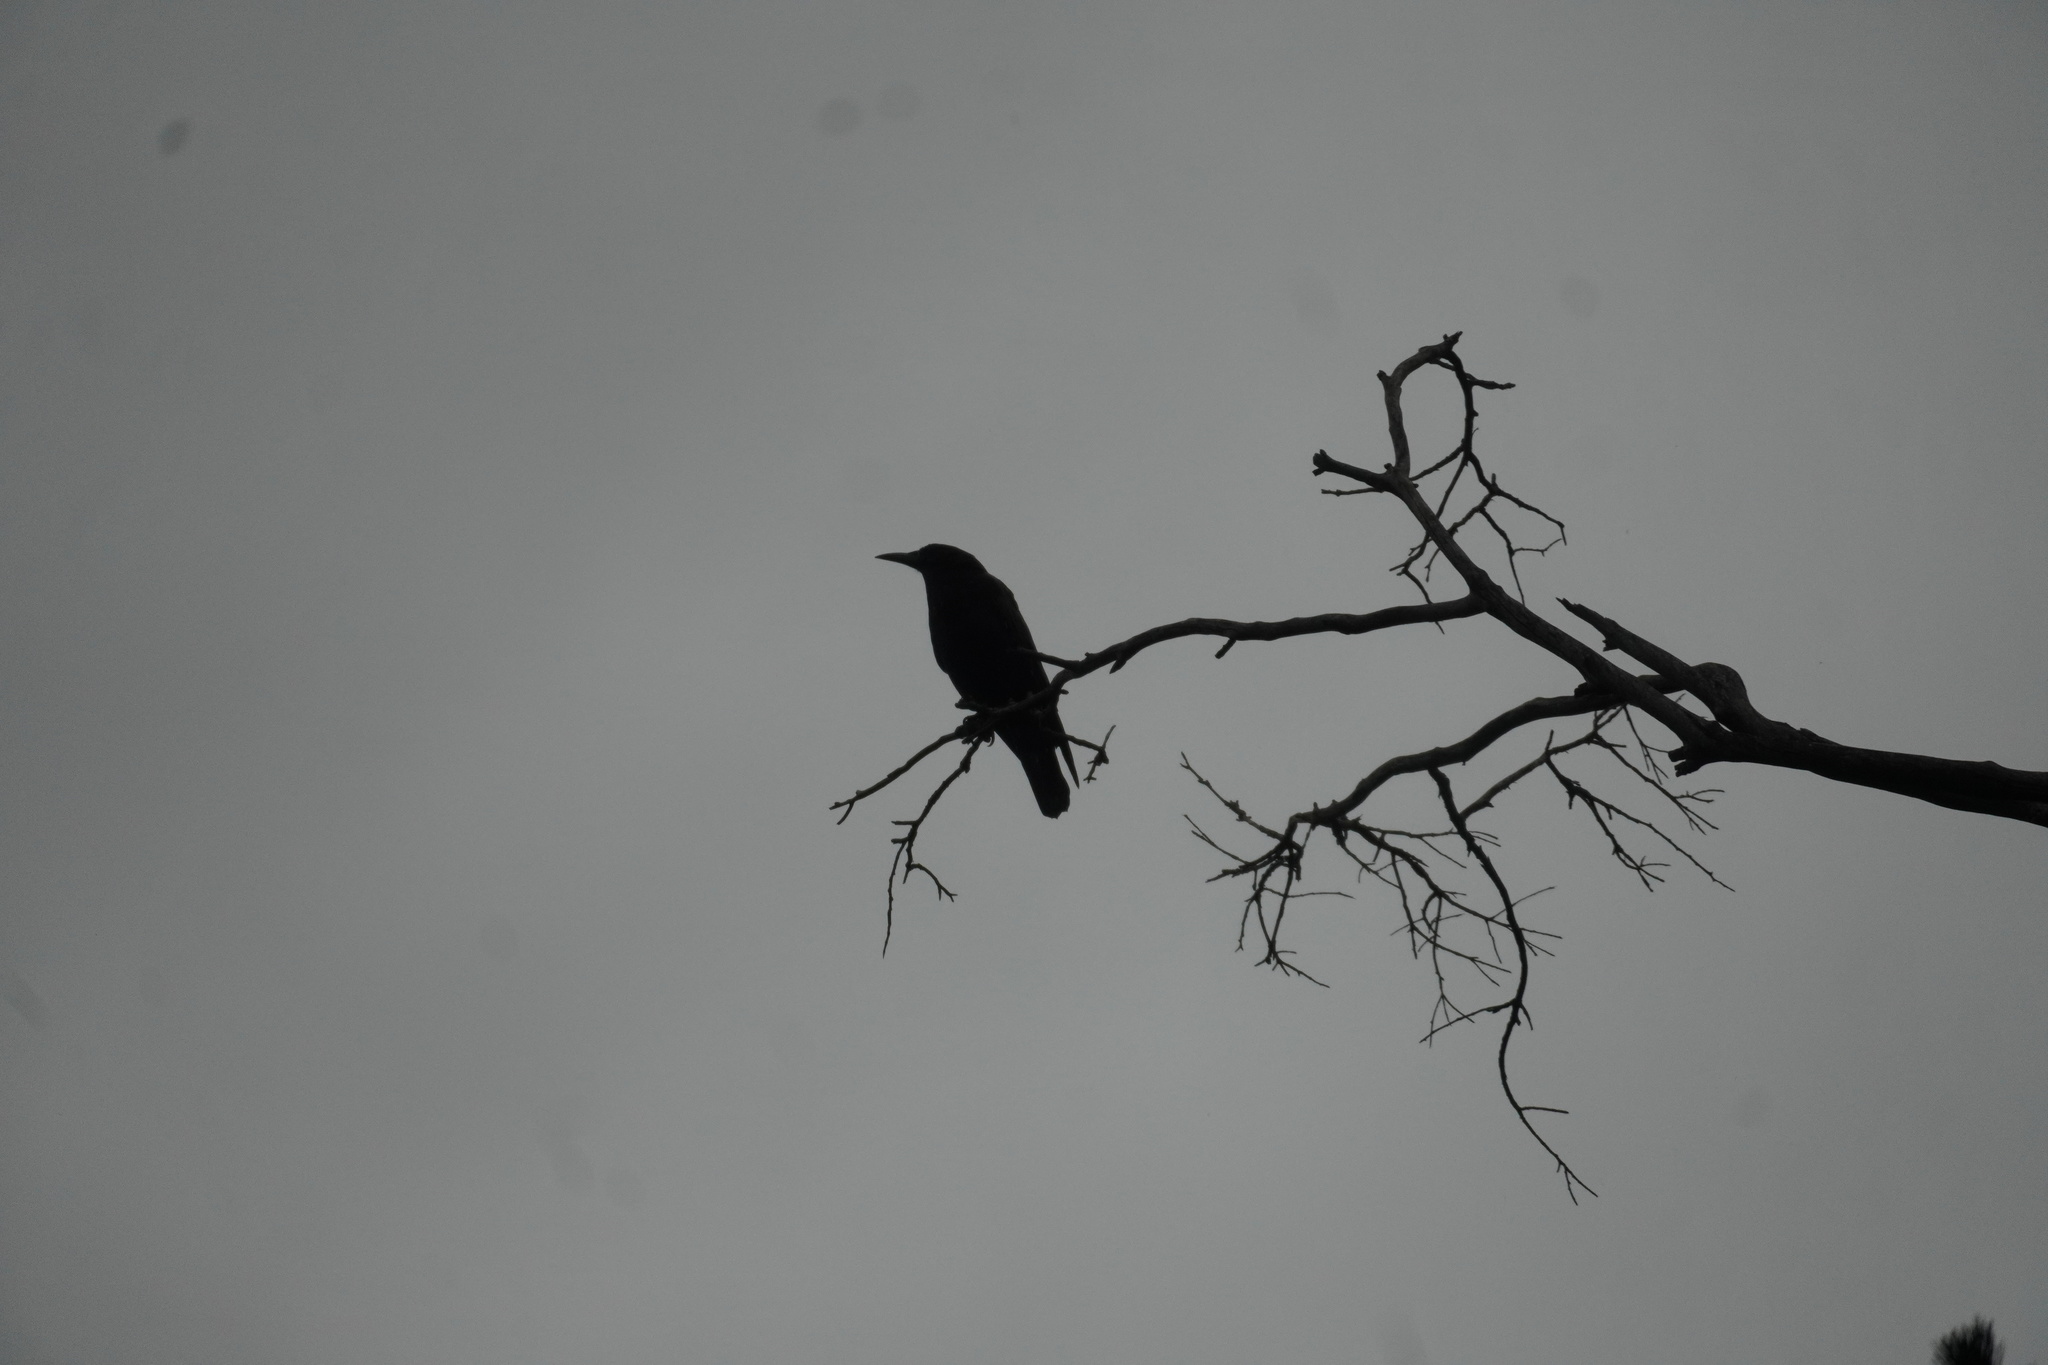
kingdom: Animalia
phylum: Chordata
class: Aves
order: Passeriformes
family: Corvidae
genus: Corvus
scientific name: Corvus capensis
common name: Cape crow
